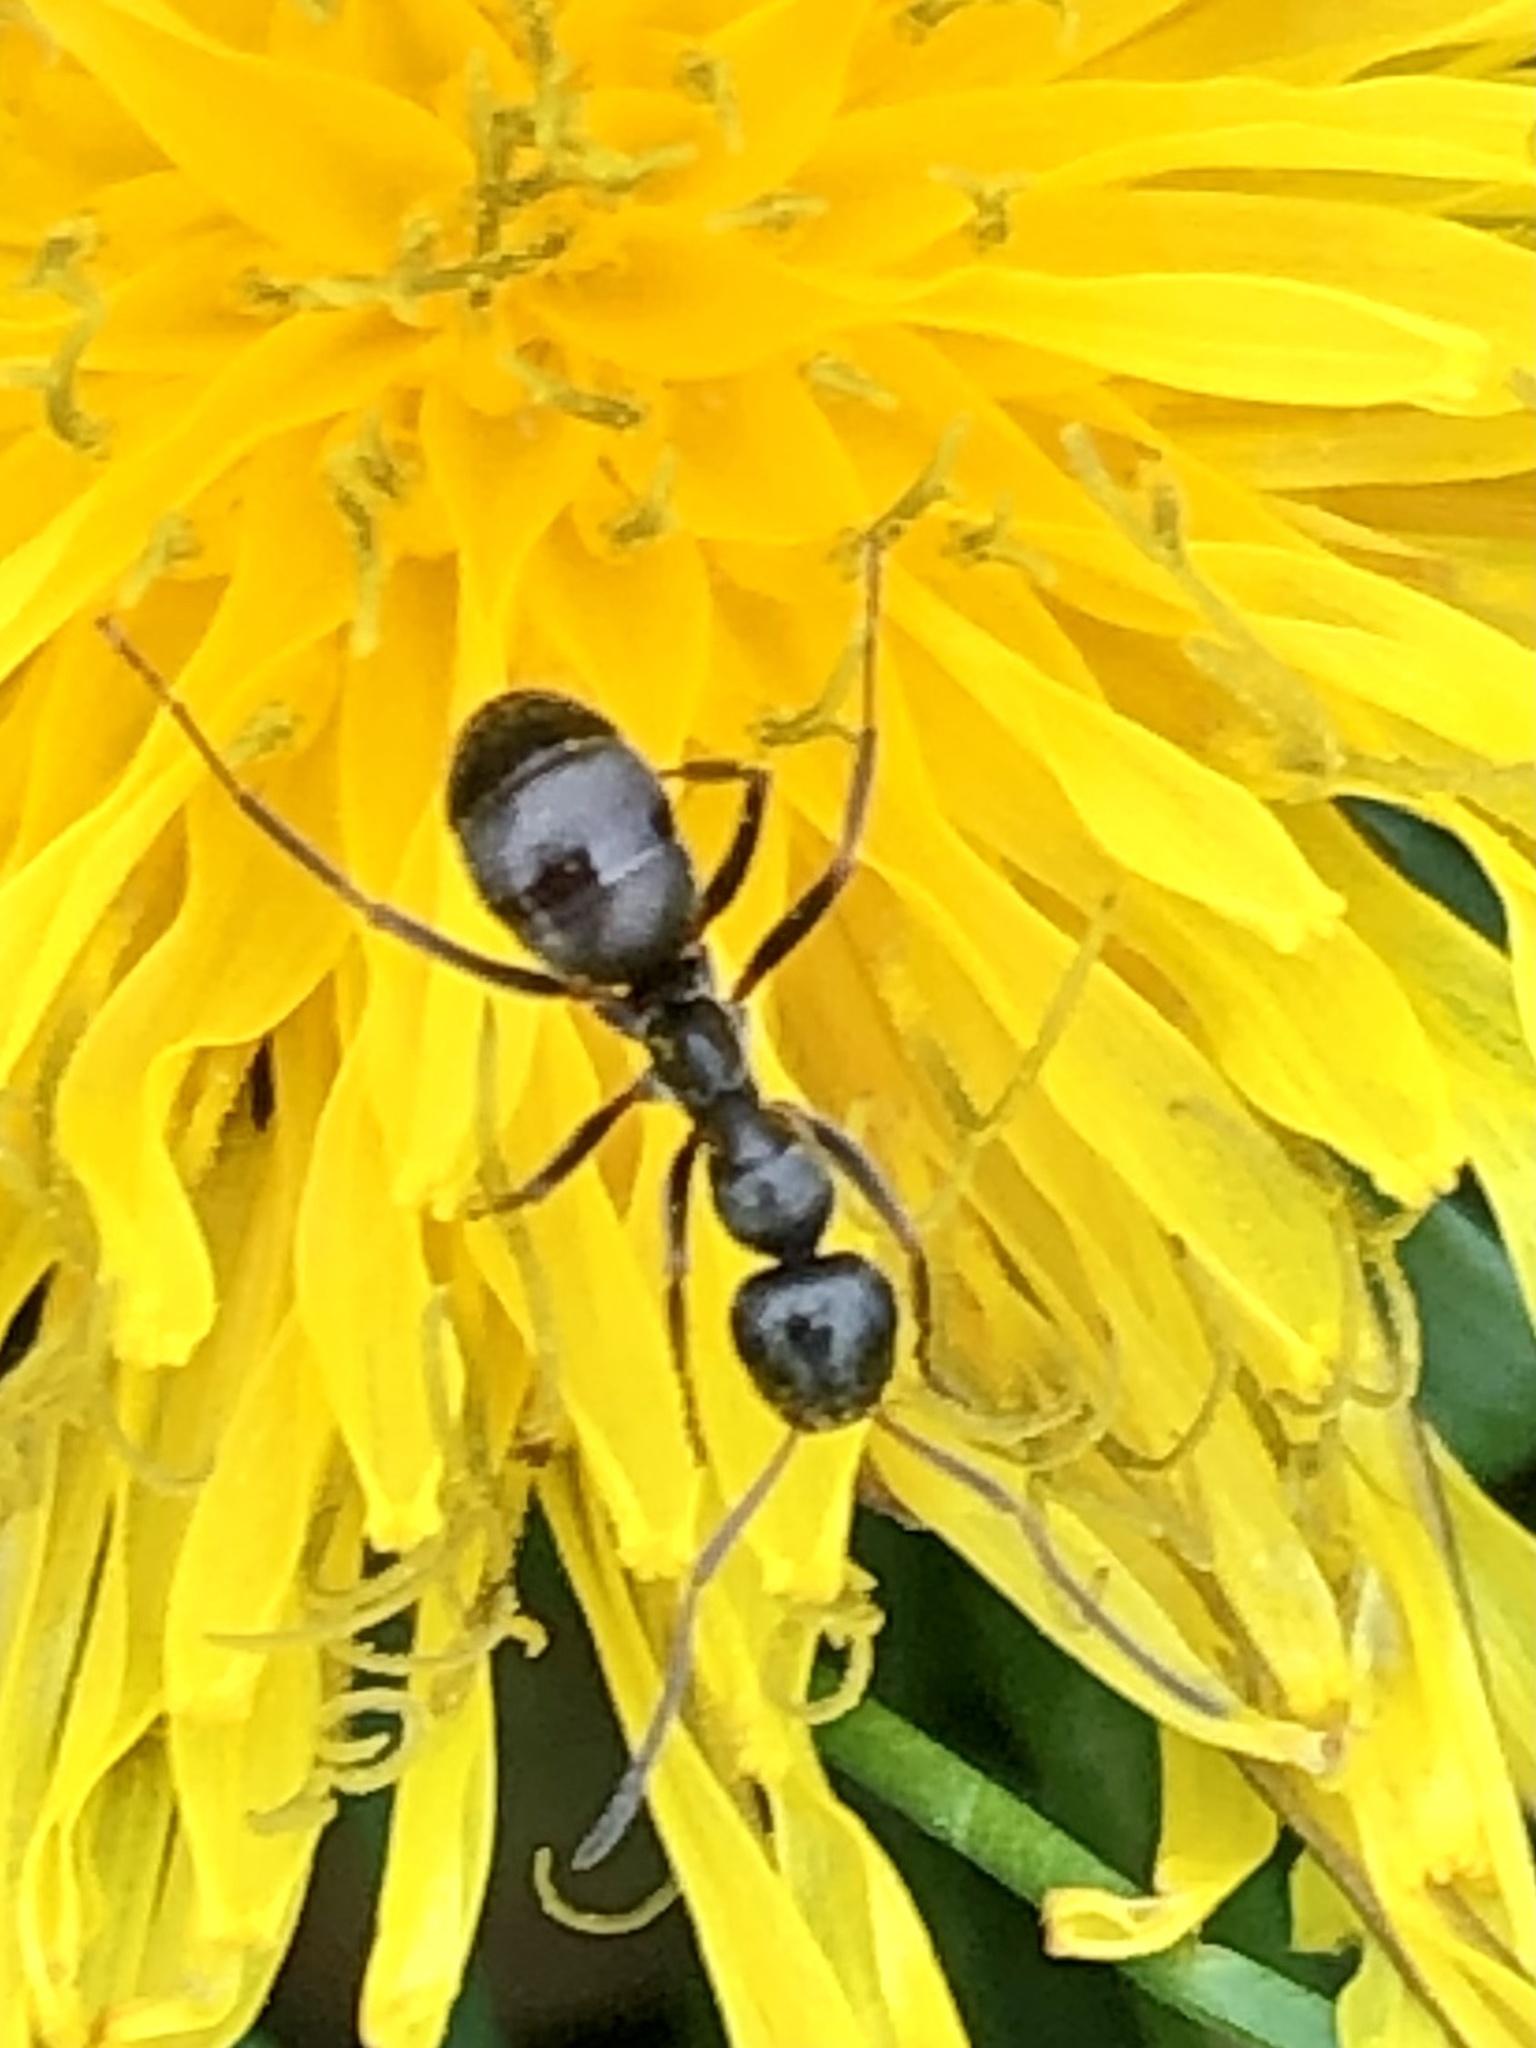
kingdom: Animalia
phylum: Arthropoda
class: Insecta
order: Hymenoptera
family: Formicidae
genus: Formica
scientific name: Formica subsericea
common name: Silky field ant
